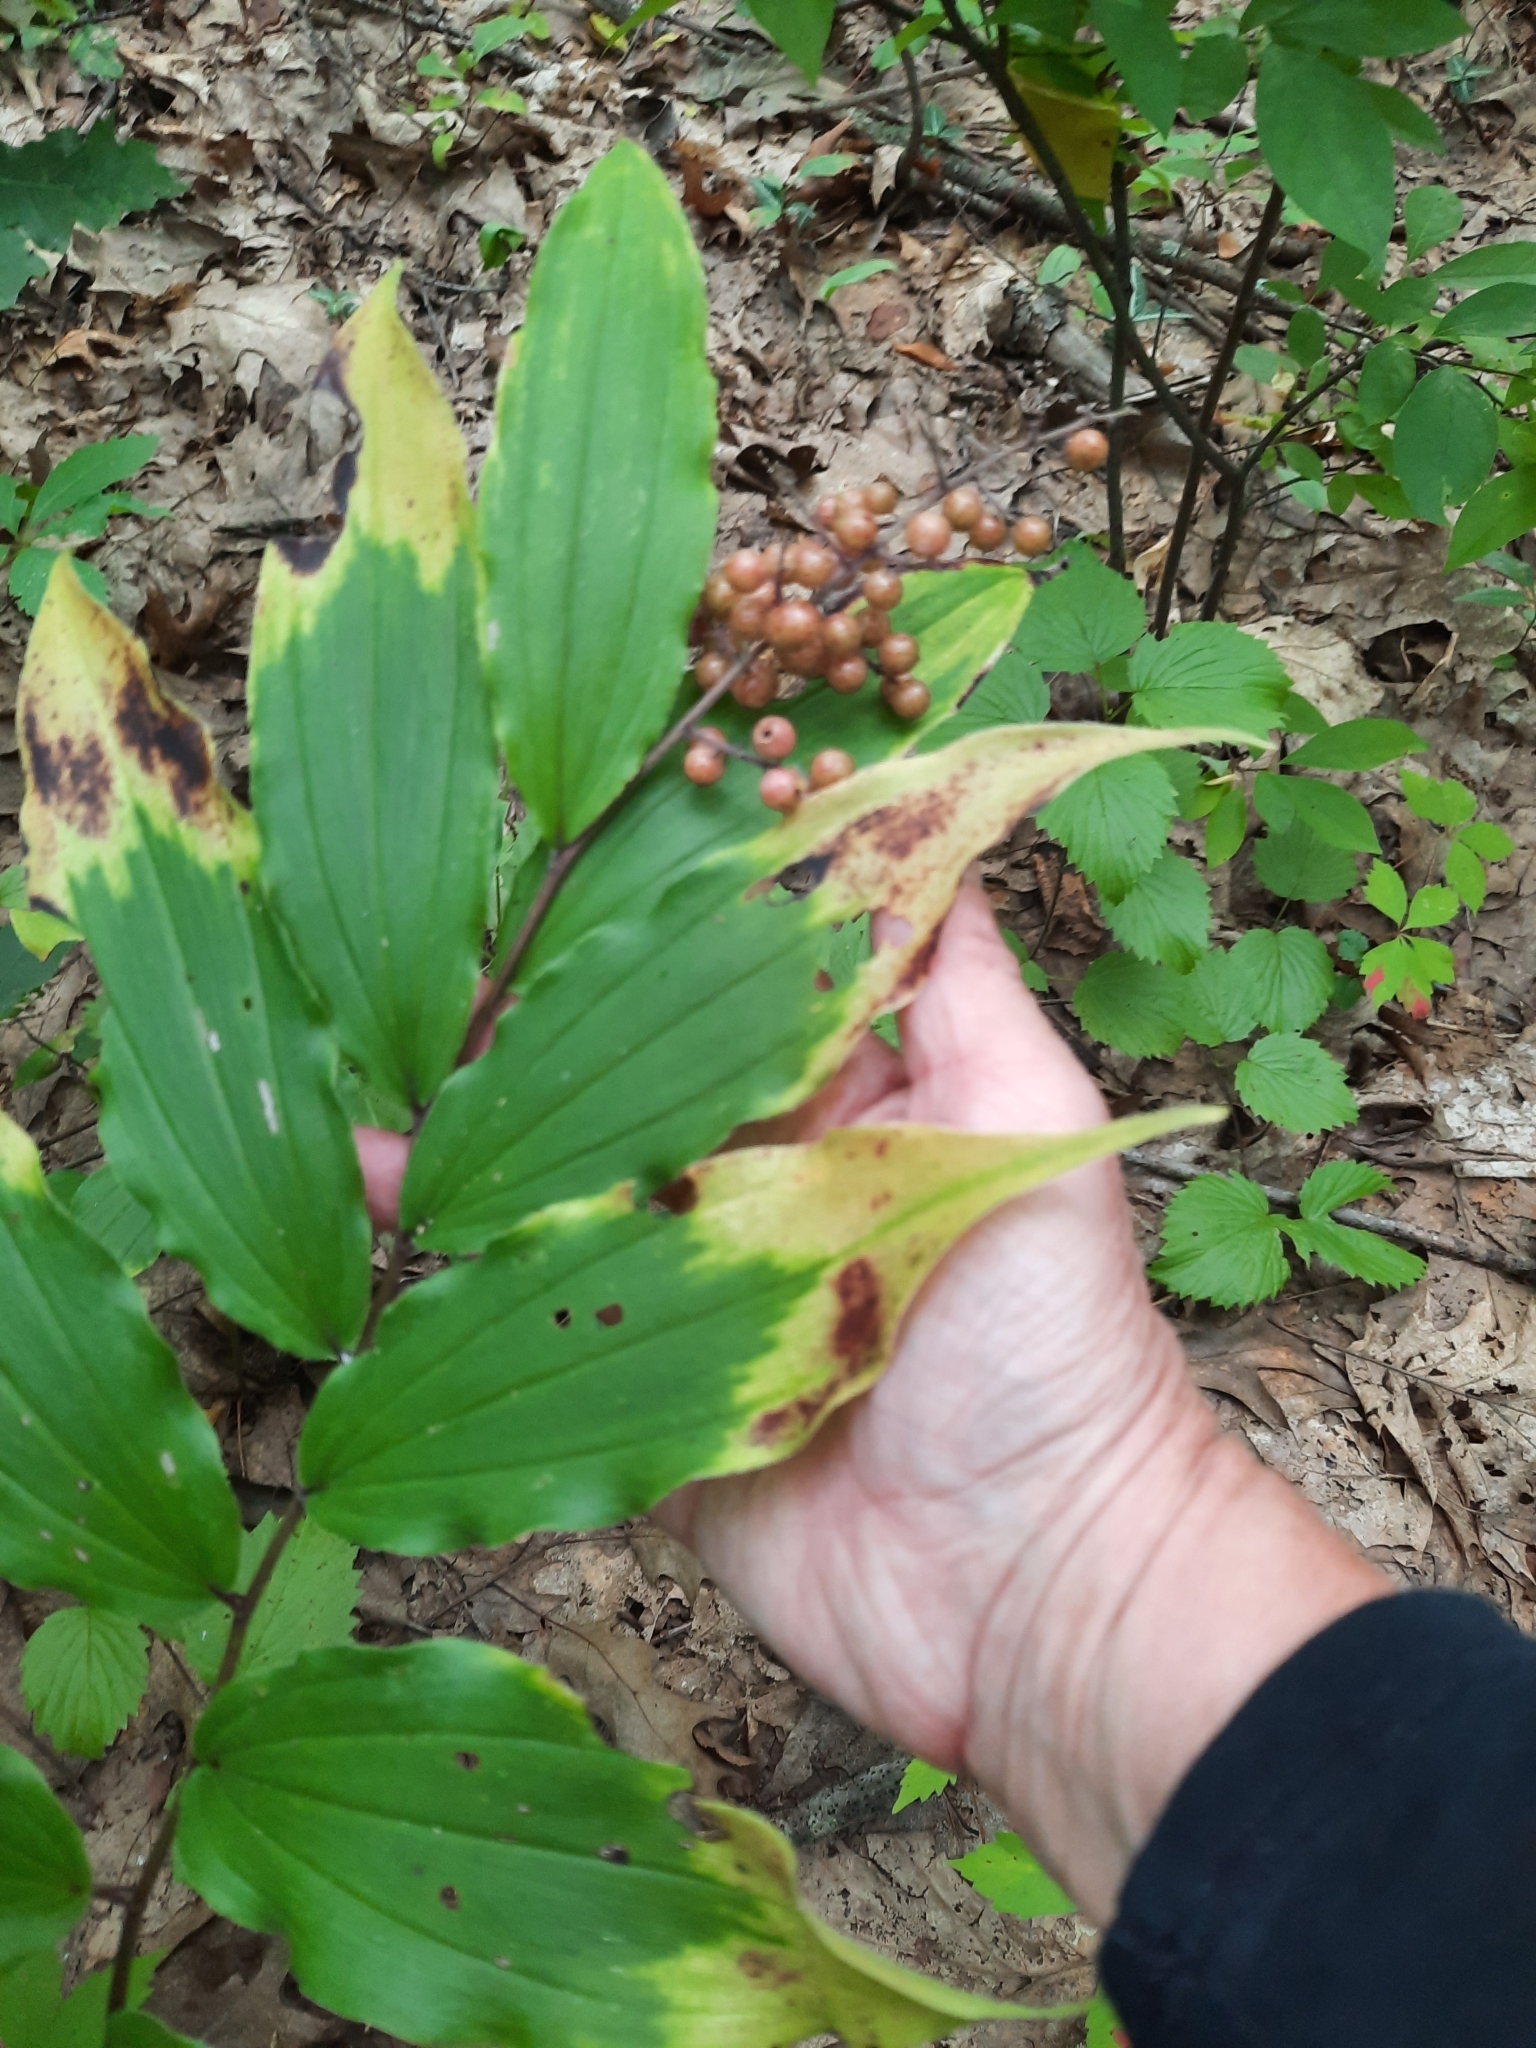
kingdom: Plantae
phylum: Tracheophyta
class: Liliopsida
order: Asparagales
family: Asparagaceae
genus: Maianthemum
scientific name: Maianthemum racemosum
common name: False spikenard
